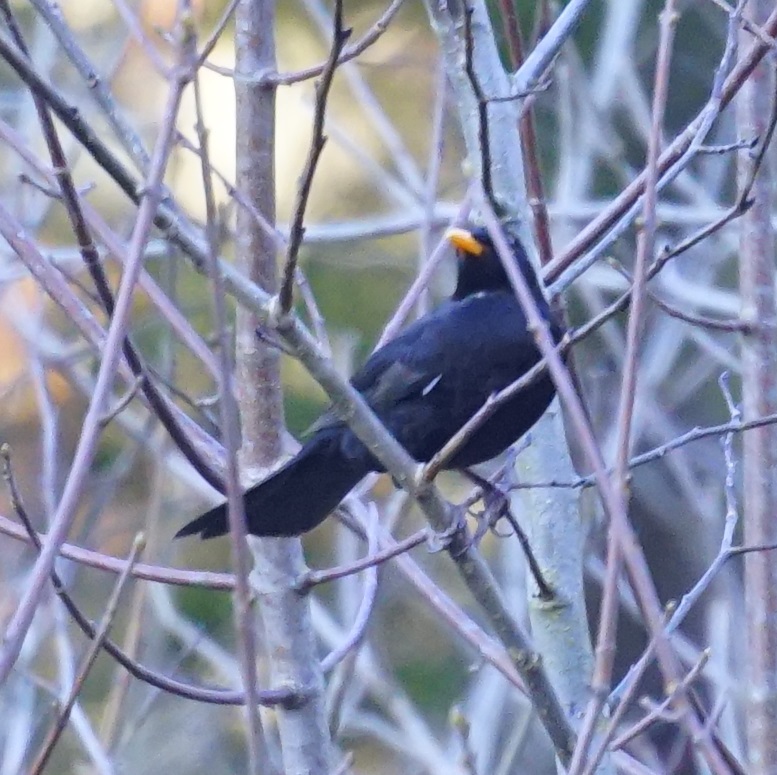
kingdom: Animalia
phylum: Chordata
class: Aves
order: Passeriformes
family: Turdidae
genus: Turdus
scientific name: Turdus merula
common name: Common blackbird
